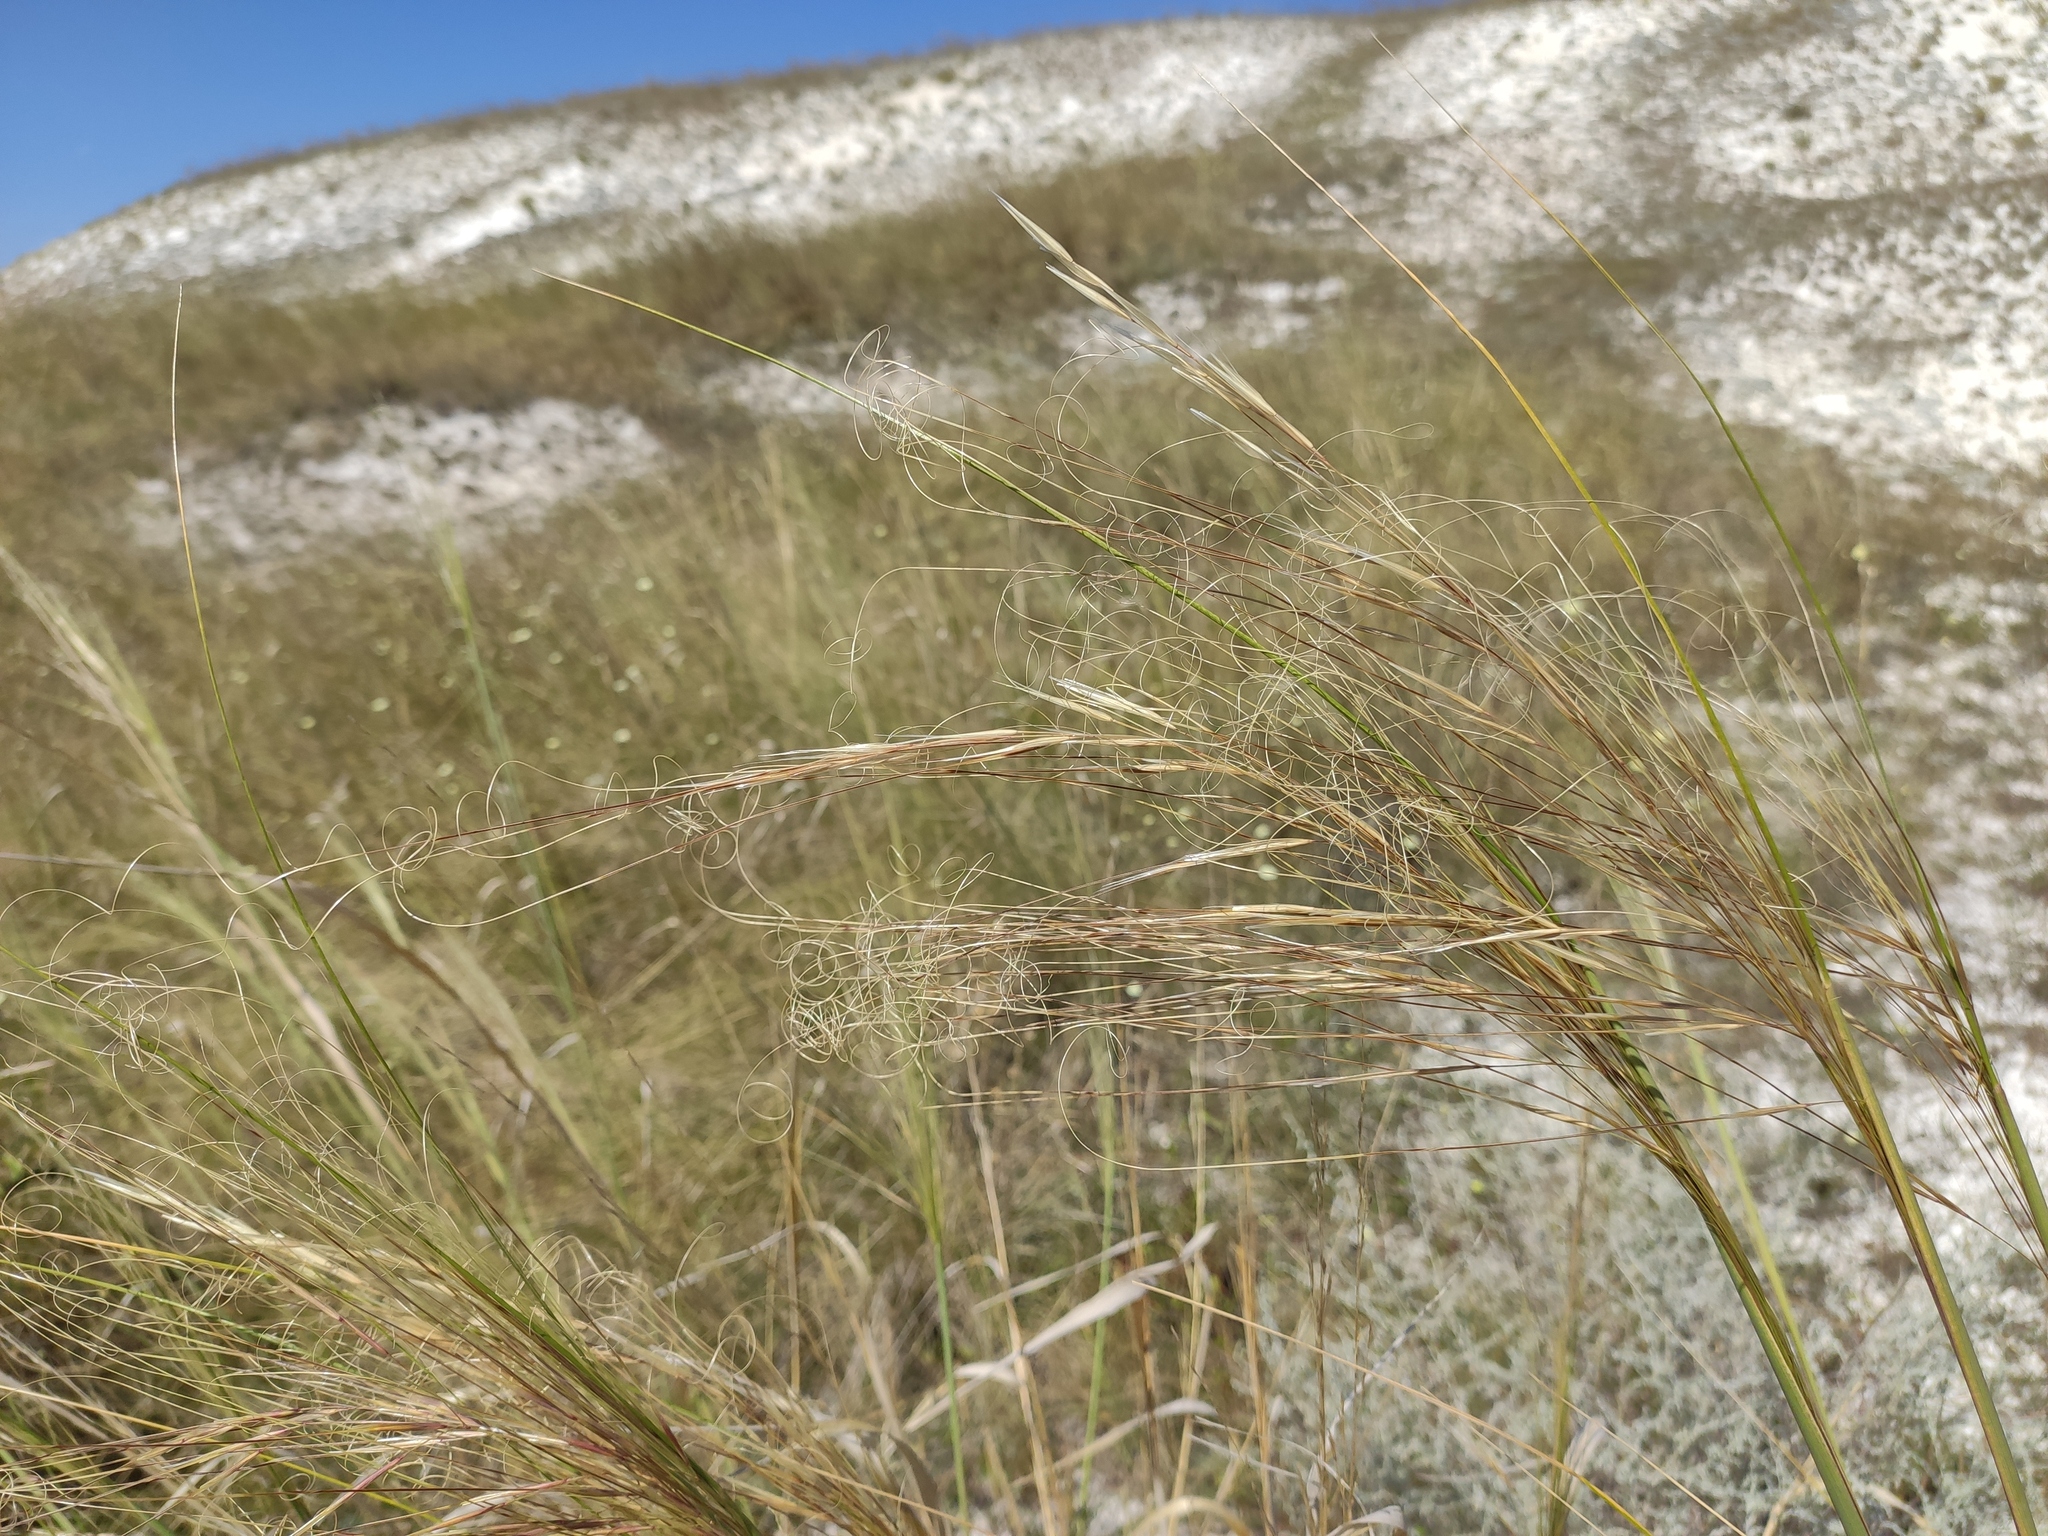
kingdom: Plantae
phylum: Tracheophyta
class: Liliopsida
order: Poales
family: Poaceae
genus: Stipa
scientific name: Stipa capillata
